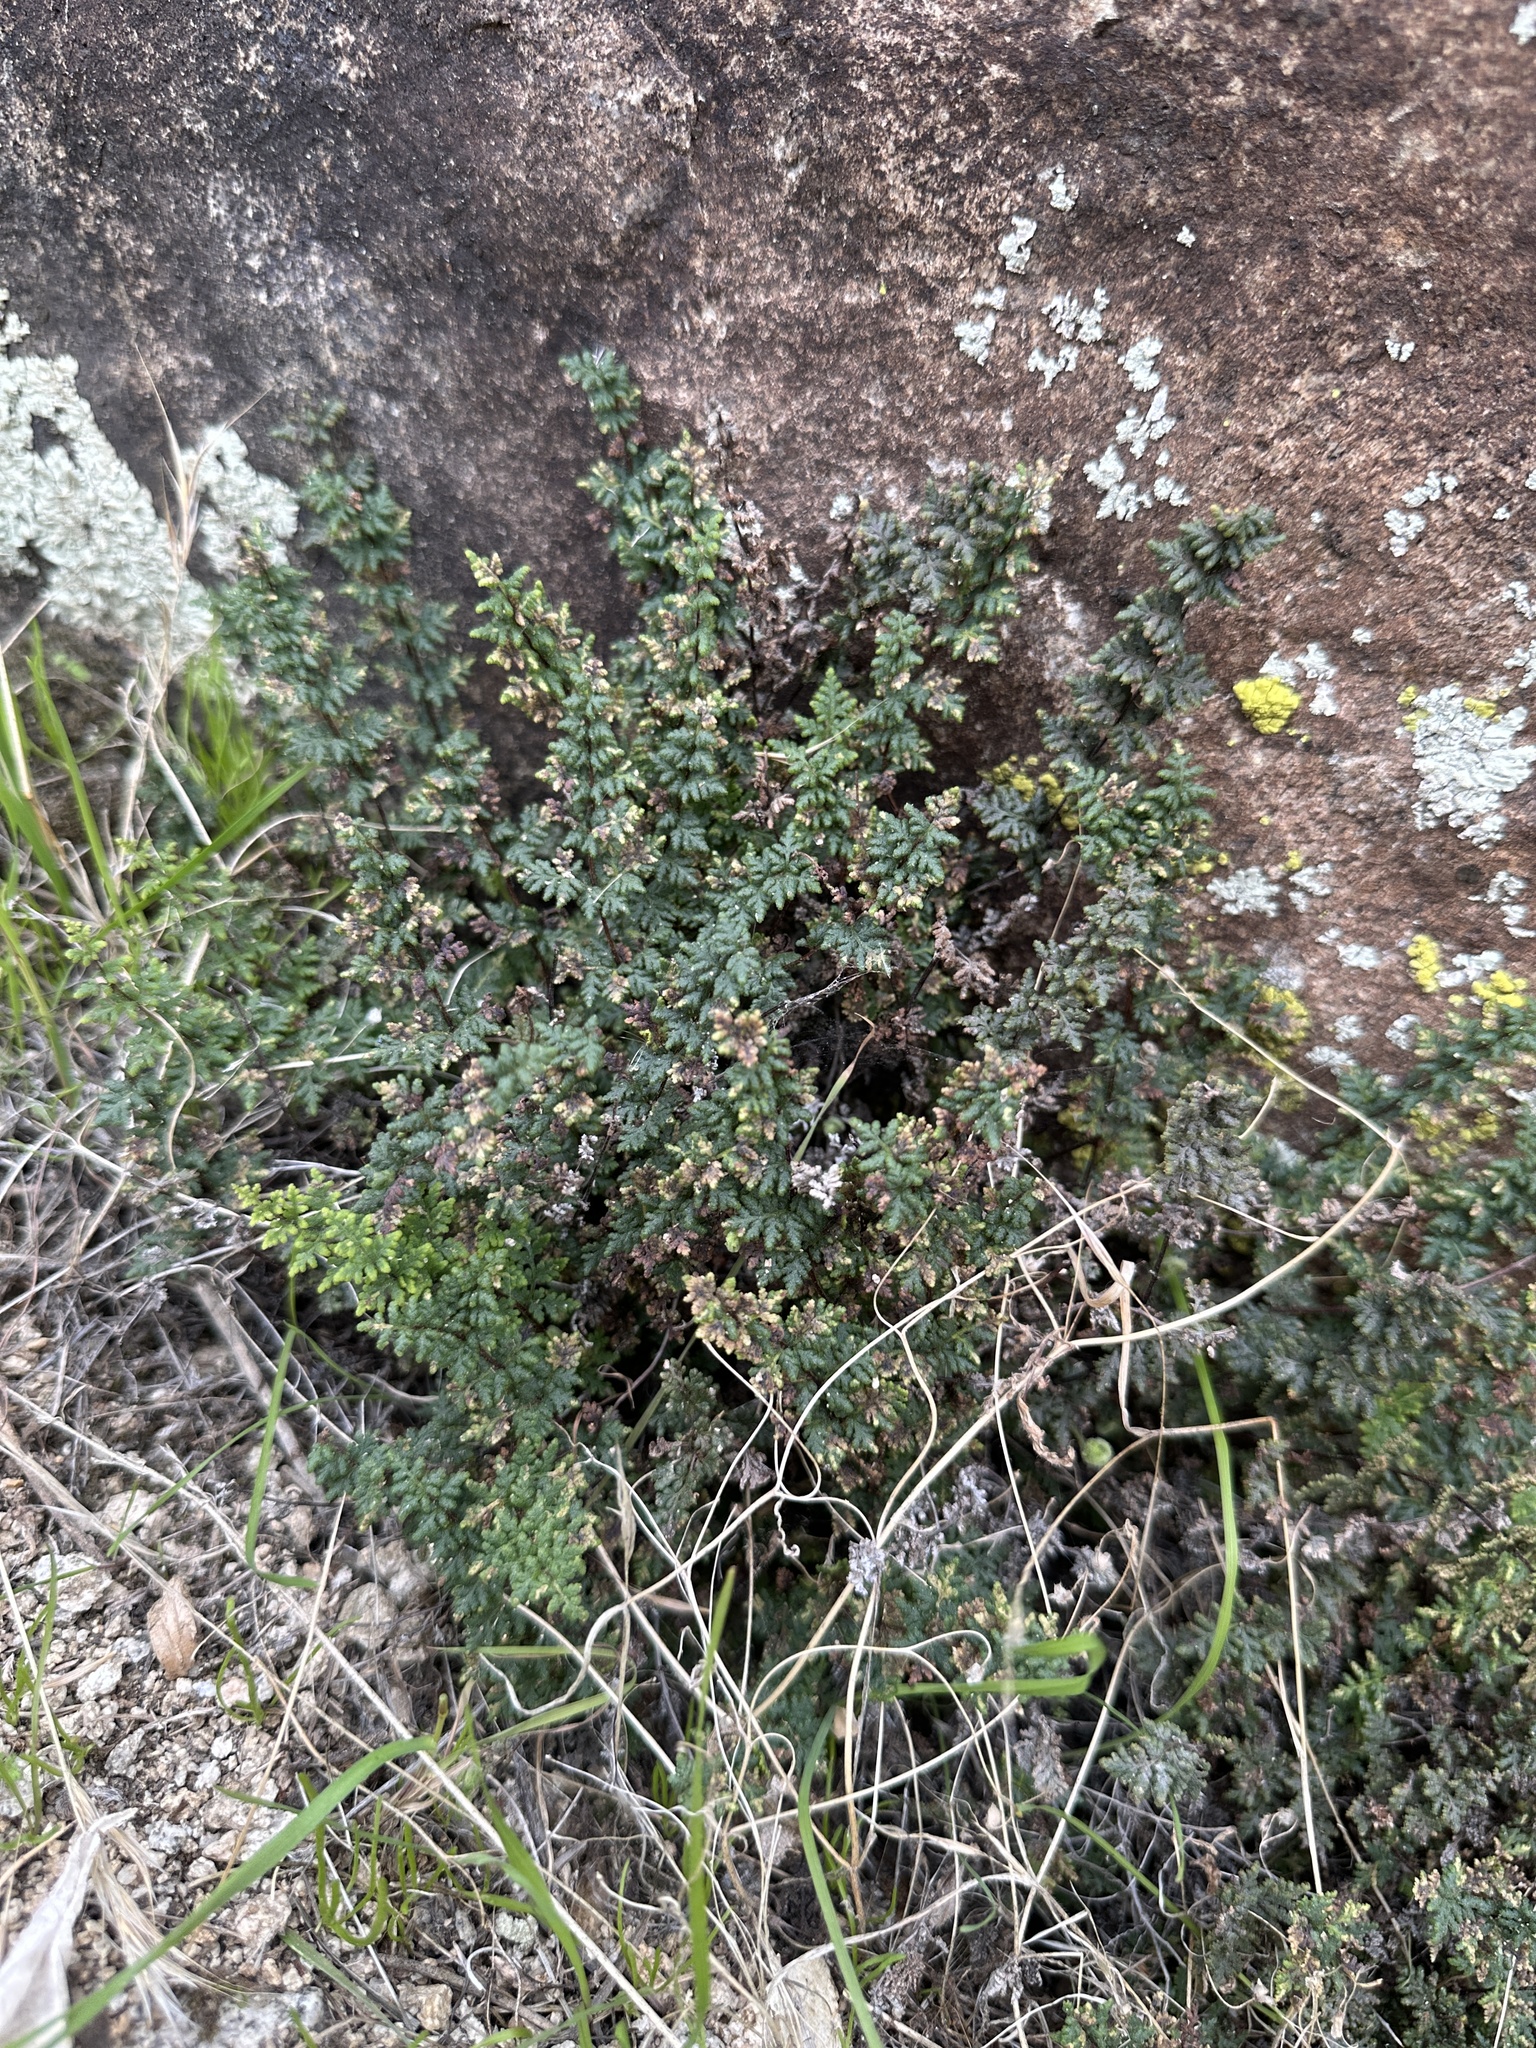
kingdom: Plantae
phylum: Tracheophyta
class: Polypodiopsida
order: Polypodiales
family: Pteridaceae
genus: Myriopteris
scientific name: Myriopteris viscida
